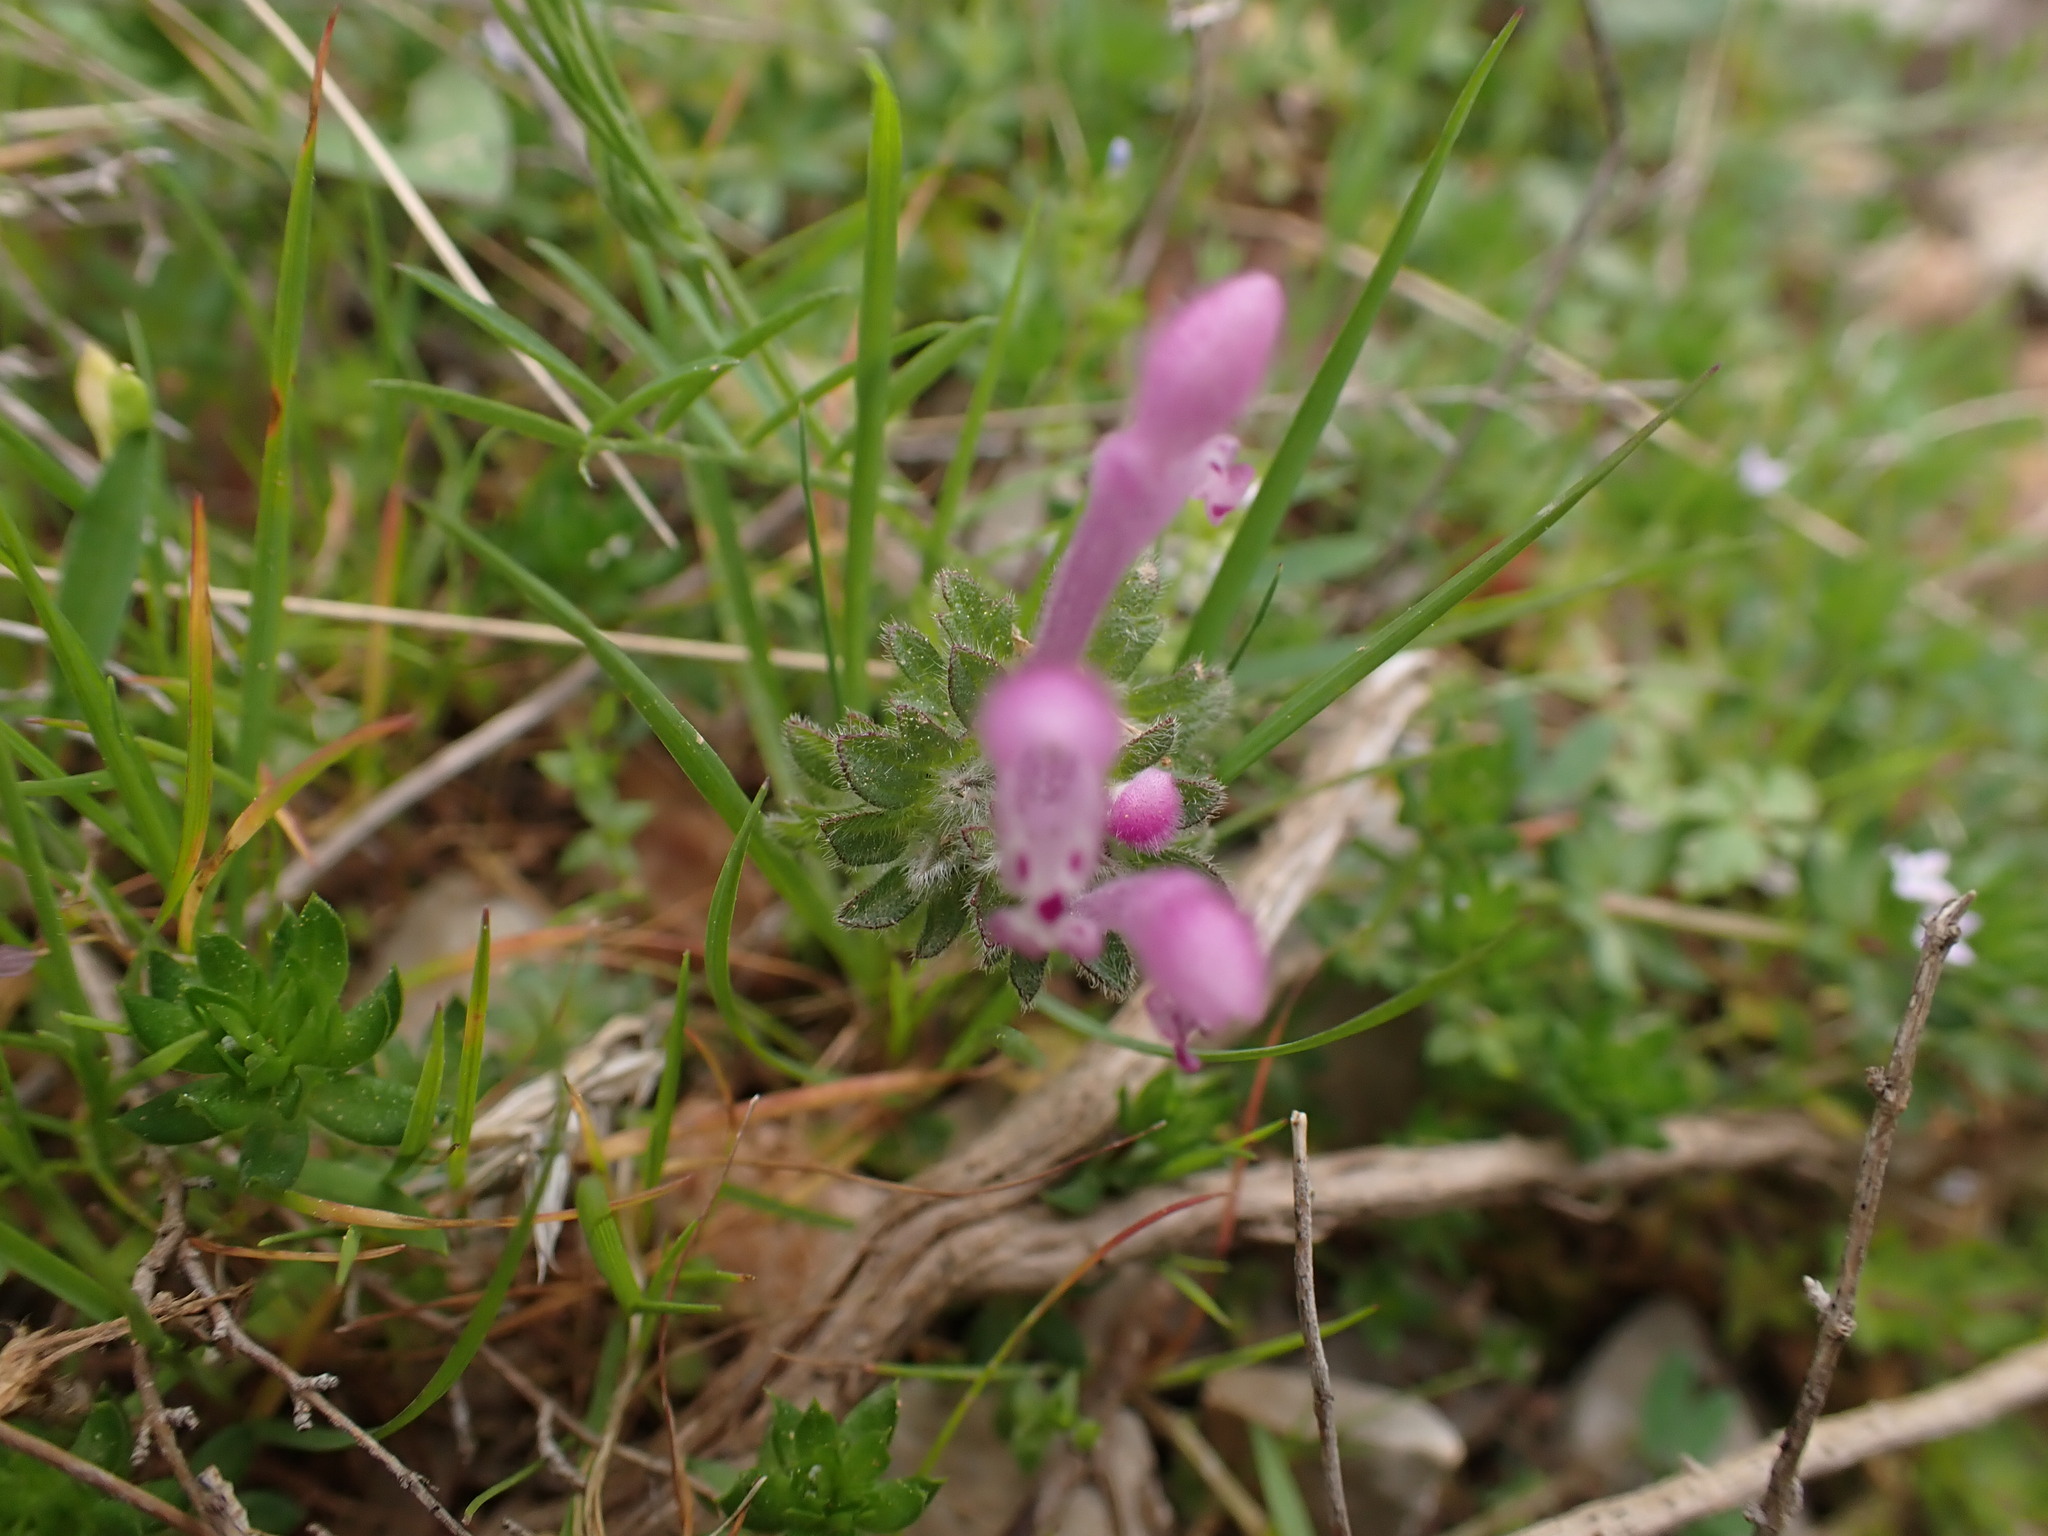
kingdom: Plantae
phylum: Tracheophyta
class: Magnoliopsida
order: Lamiales
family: Lamiaceae
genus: Lamium
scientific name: Lamium amplexicaule
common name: Henbit dead-nettle
